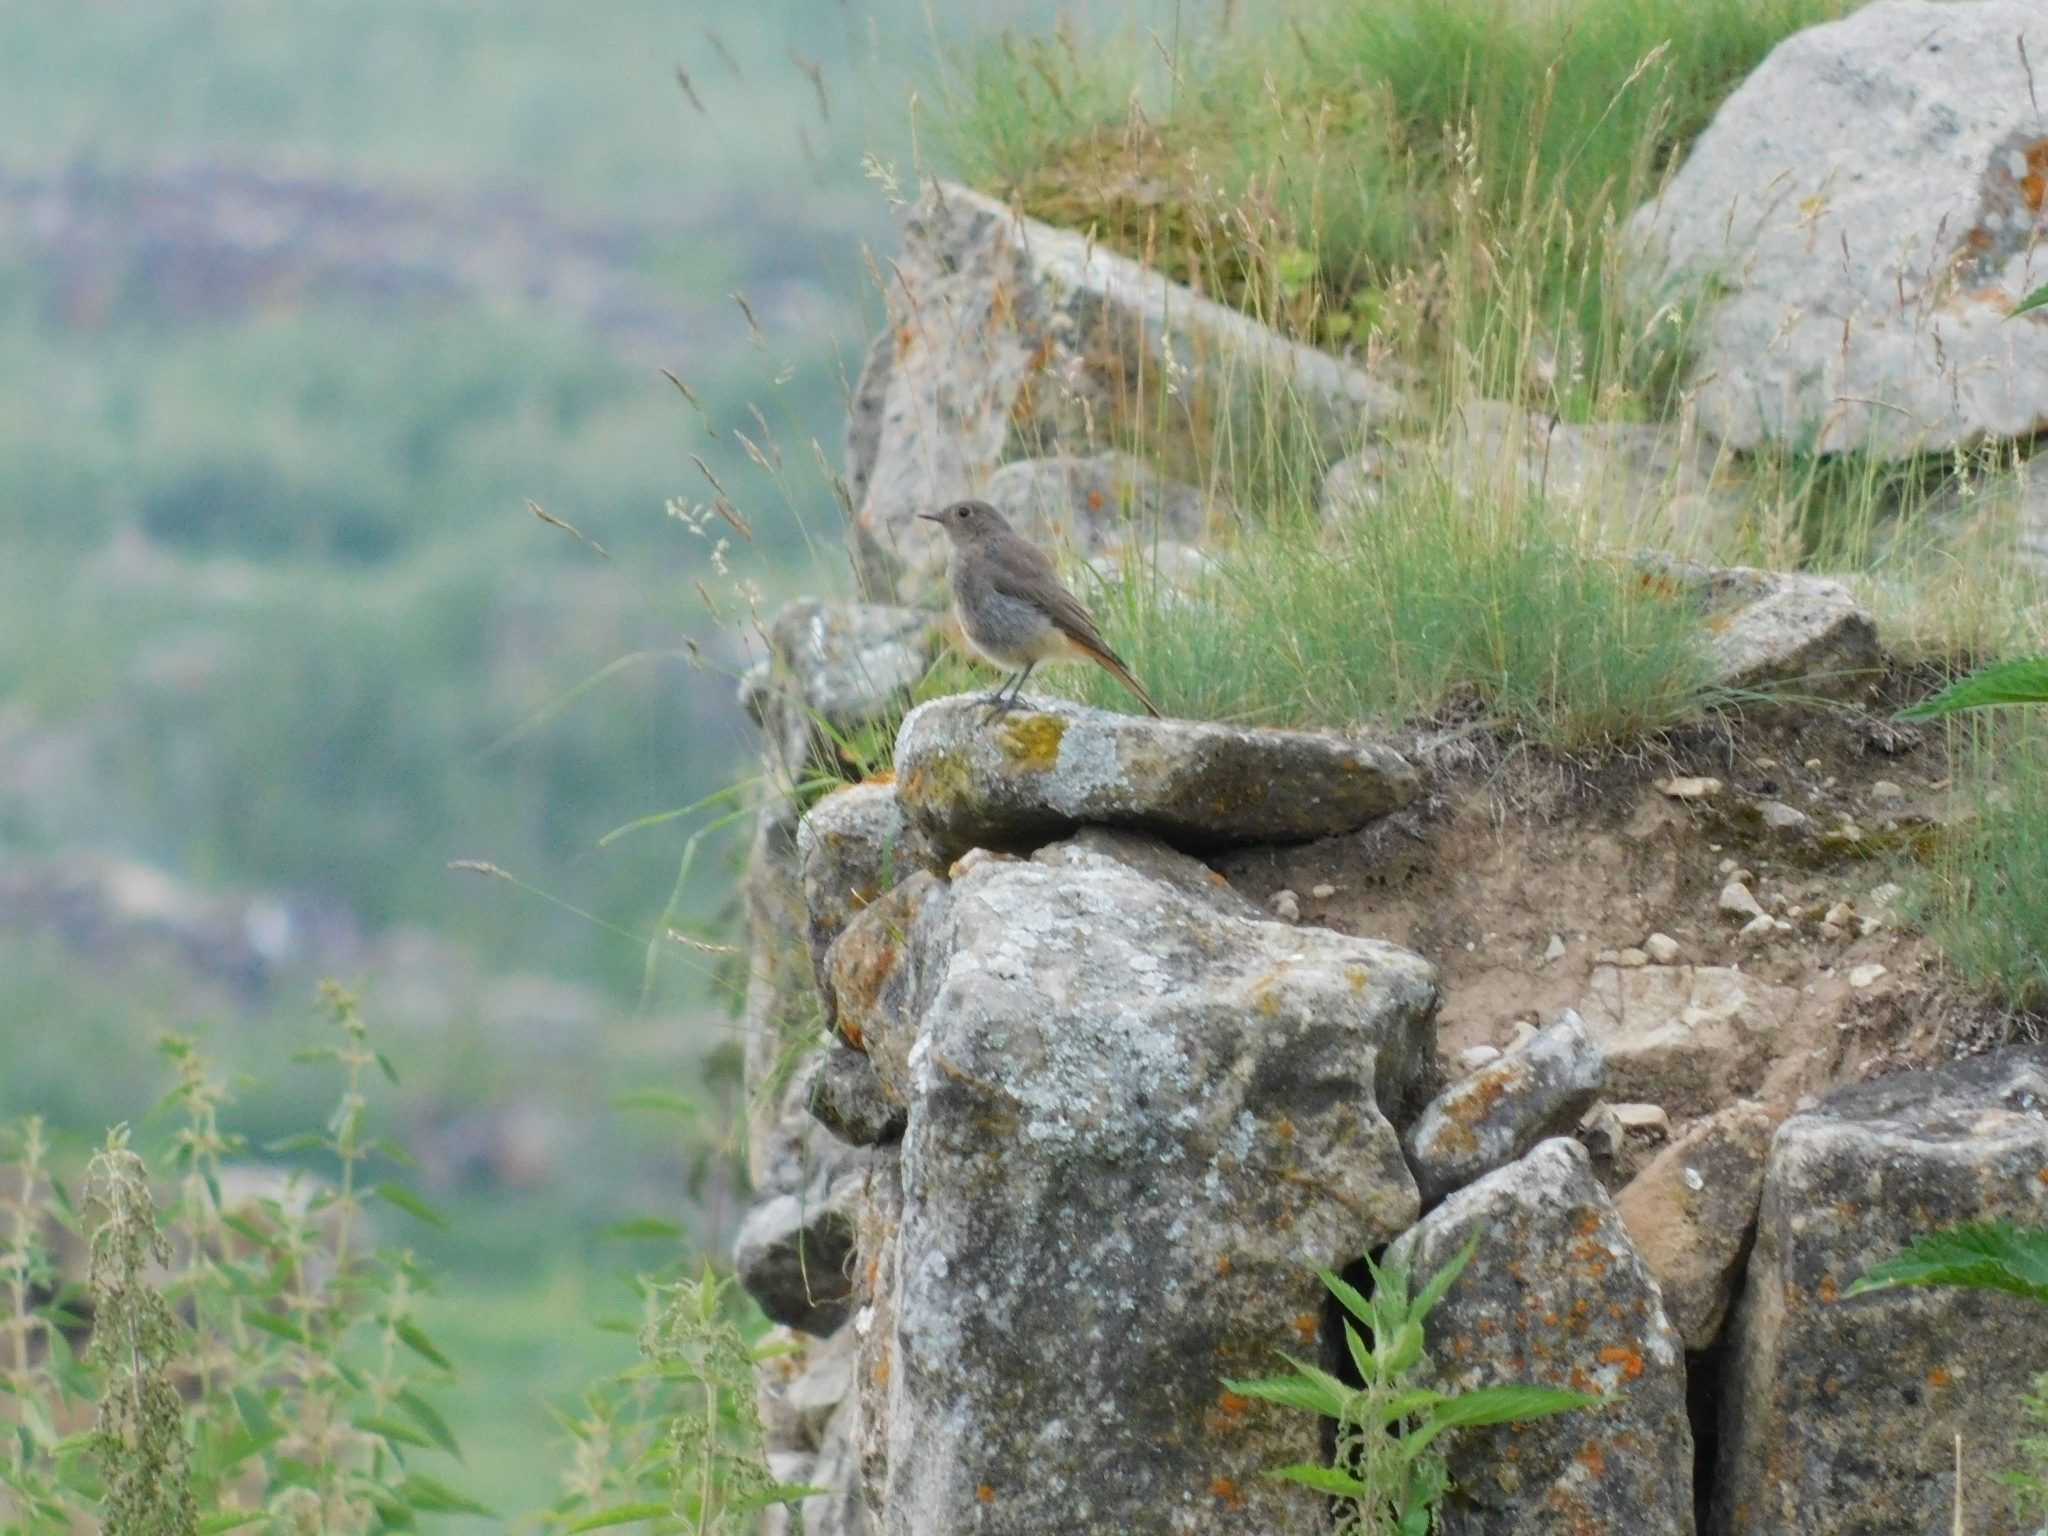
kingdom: Animalia
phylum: Chordata
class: Aves
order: Passeriformes
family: Muscicapidae
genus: Phoenicurus
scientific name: Phoenicurus ochruros
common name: Black redstart
